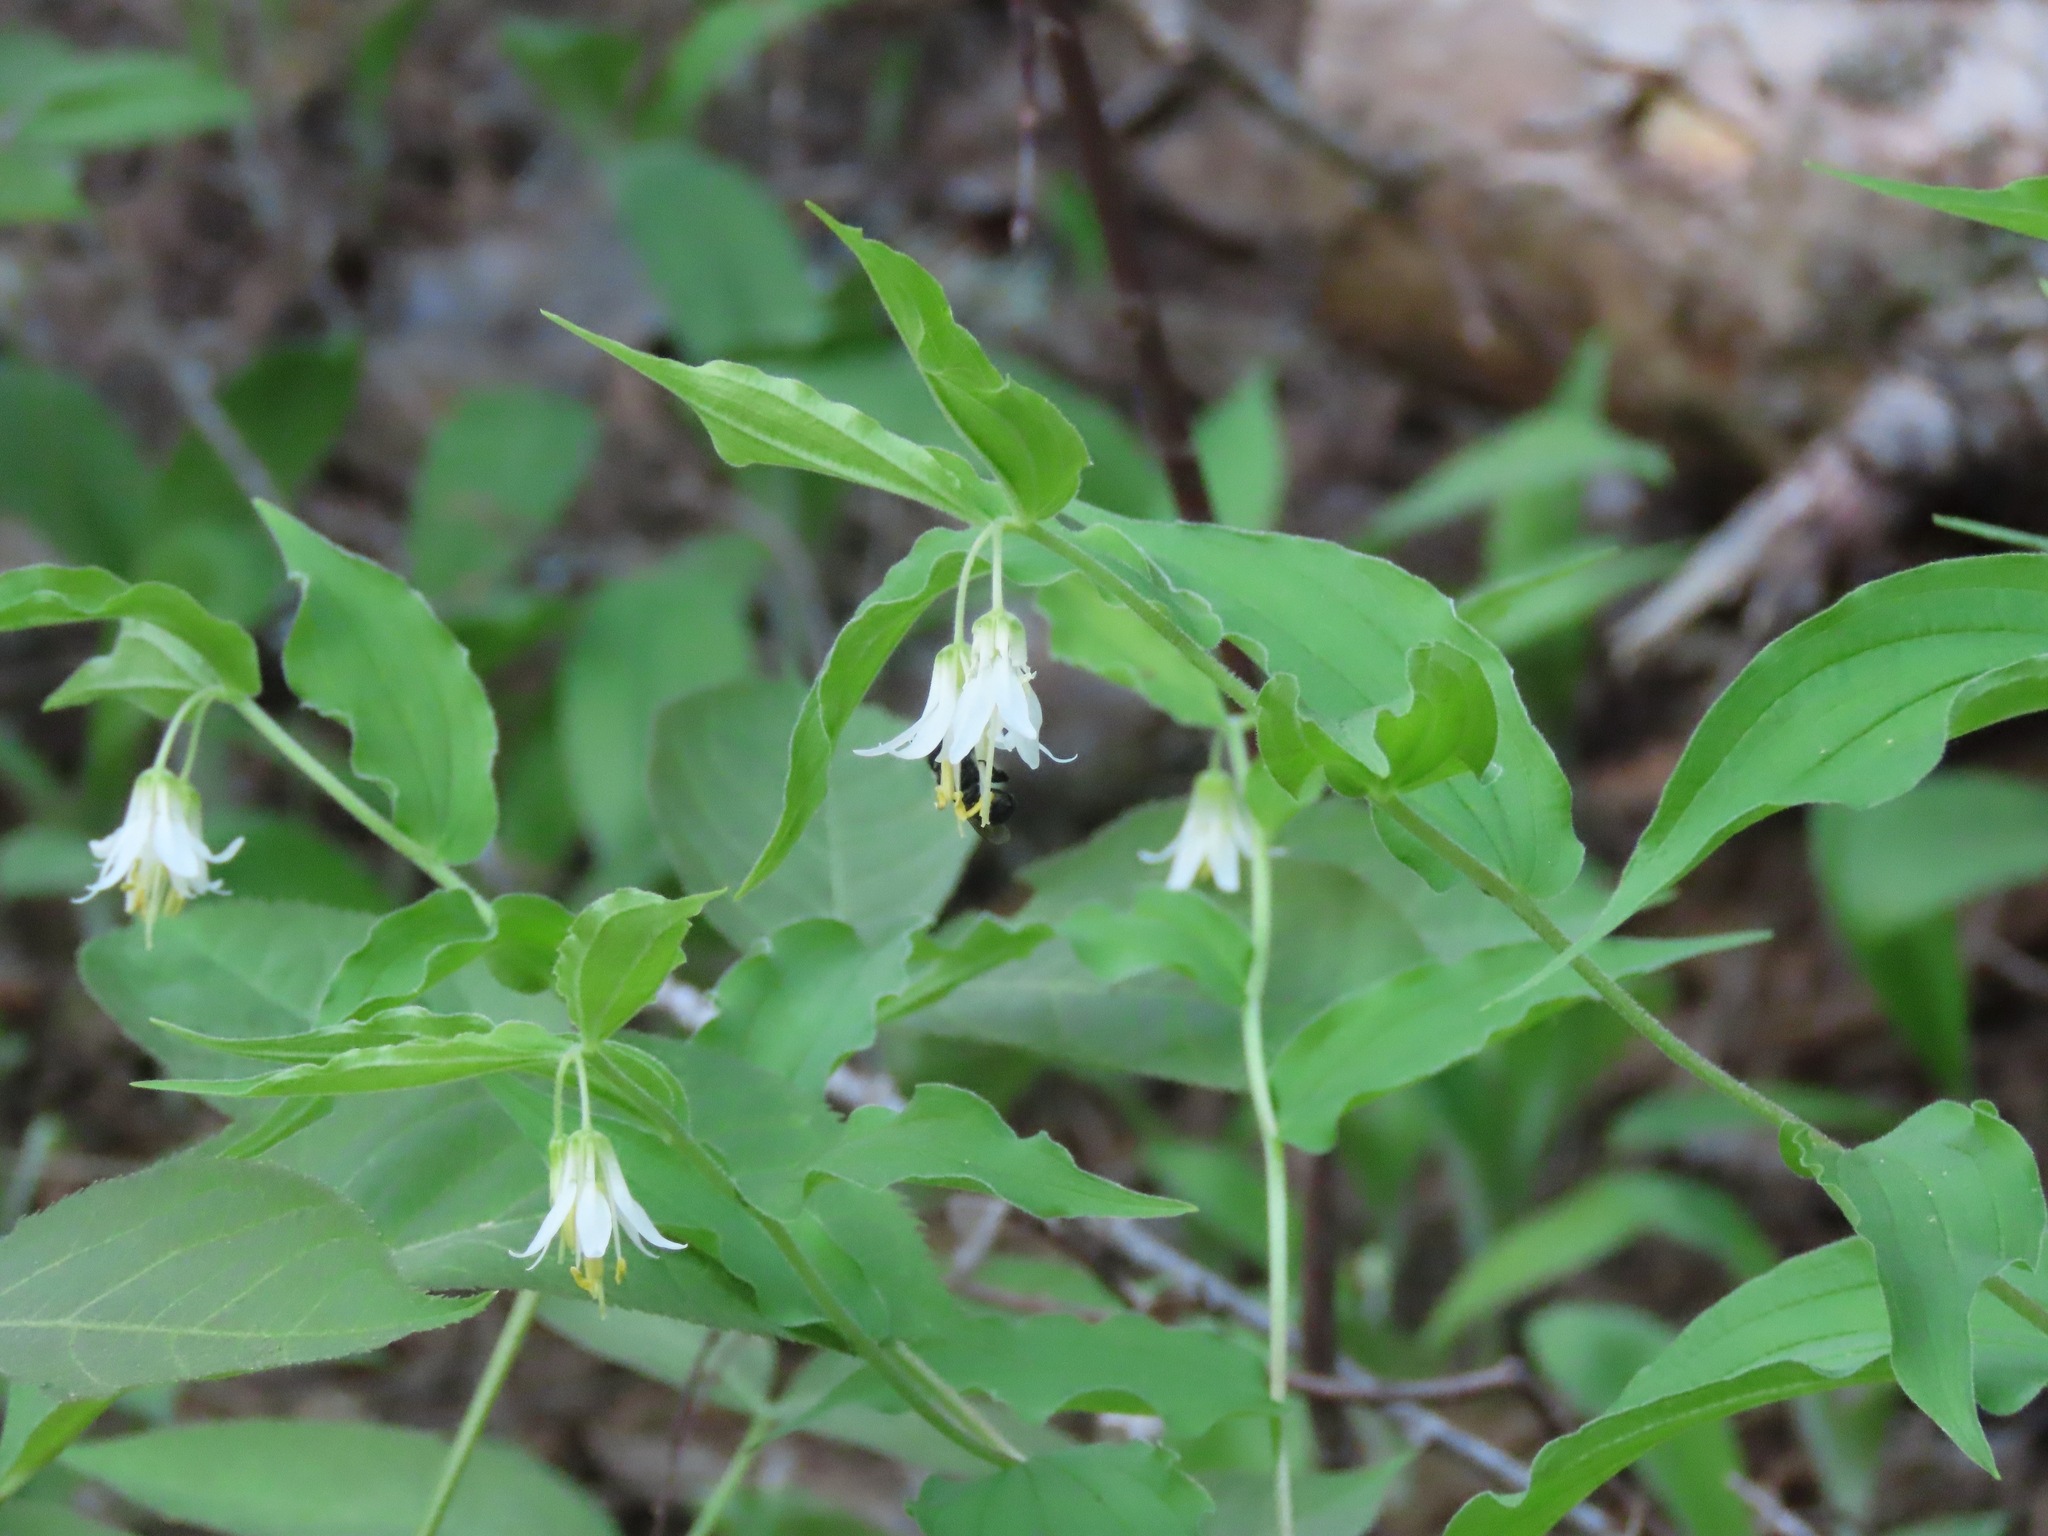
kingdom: Plantae
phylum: Tracheophyta
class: Liliopsida
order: Liliales
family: Liliaceae
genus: Prosartes
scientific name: Prosartes hookeri
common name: Fairy-bells
